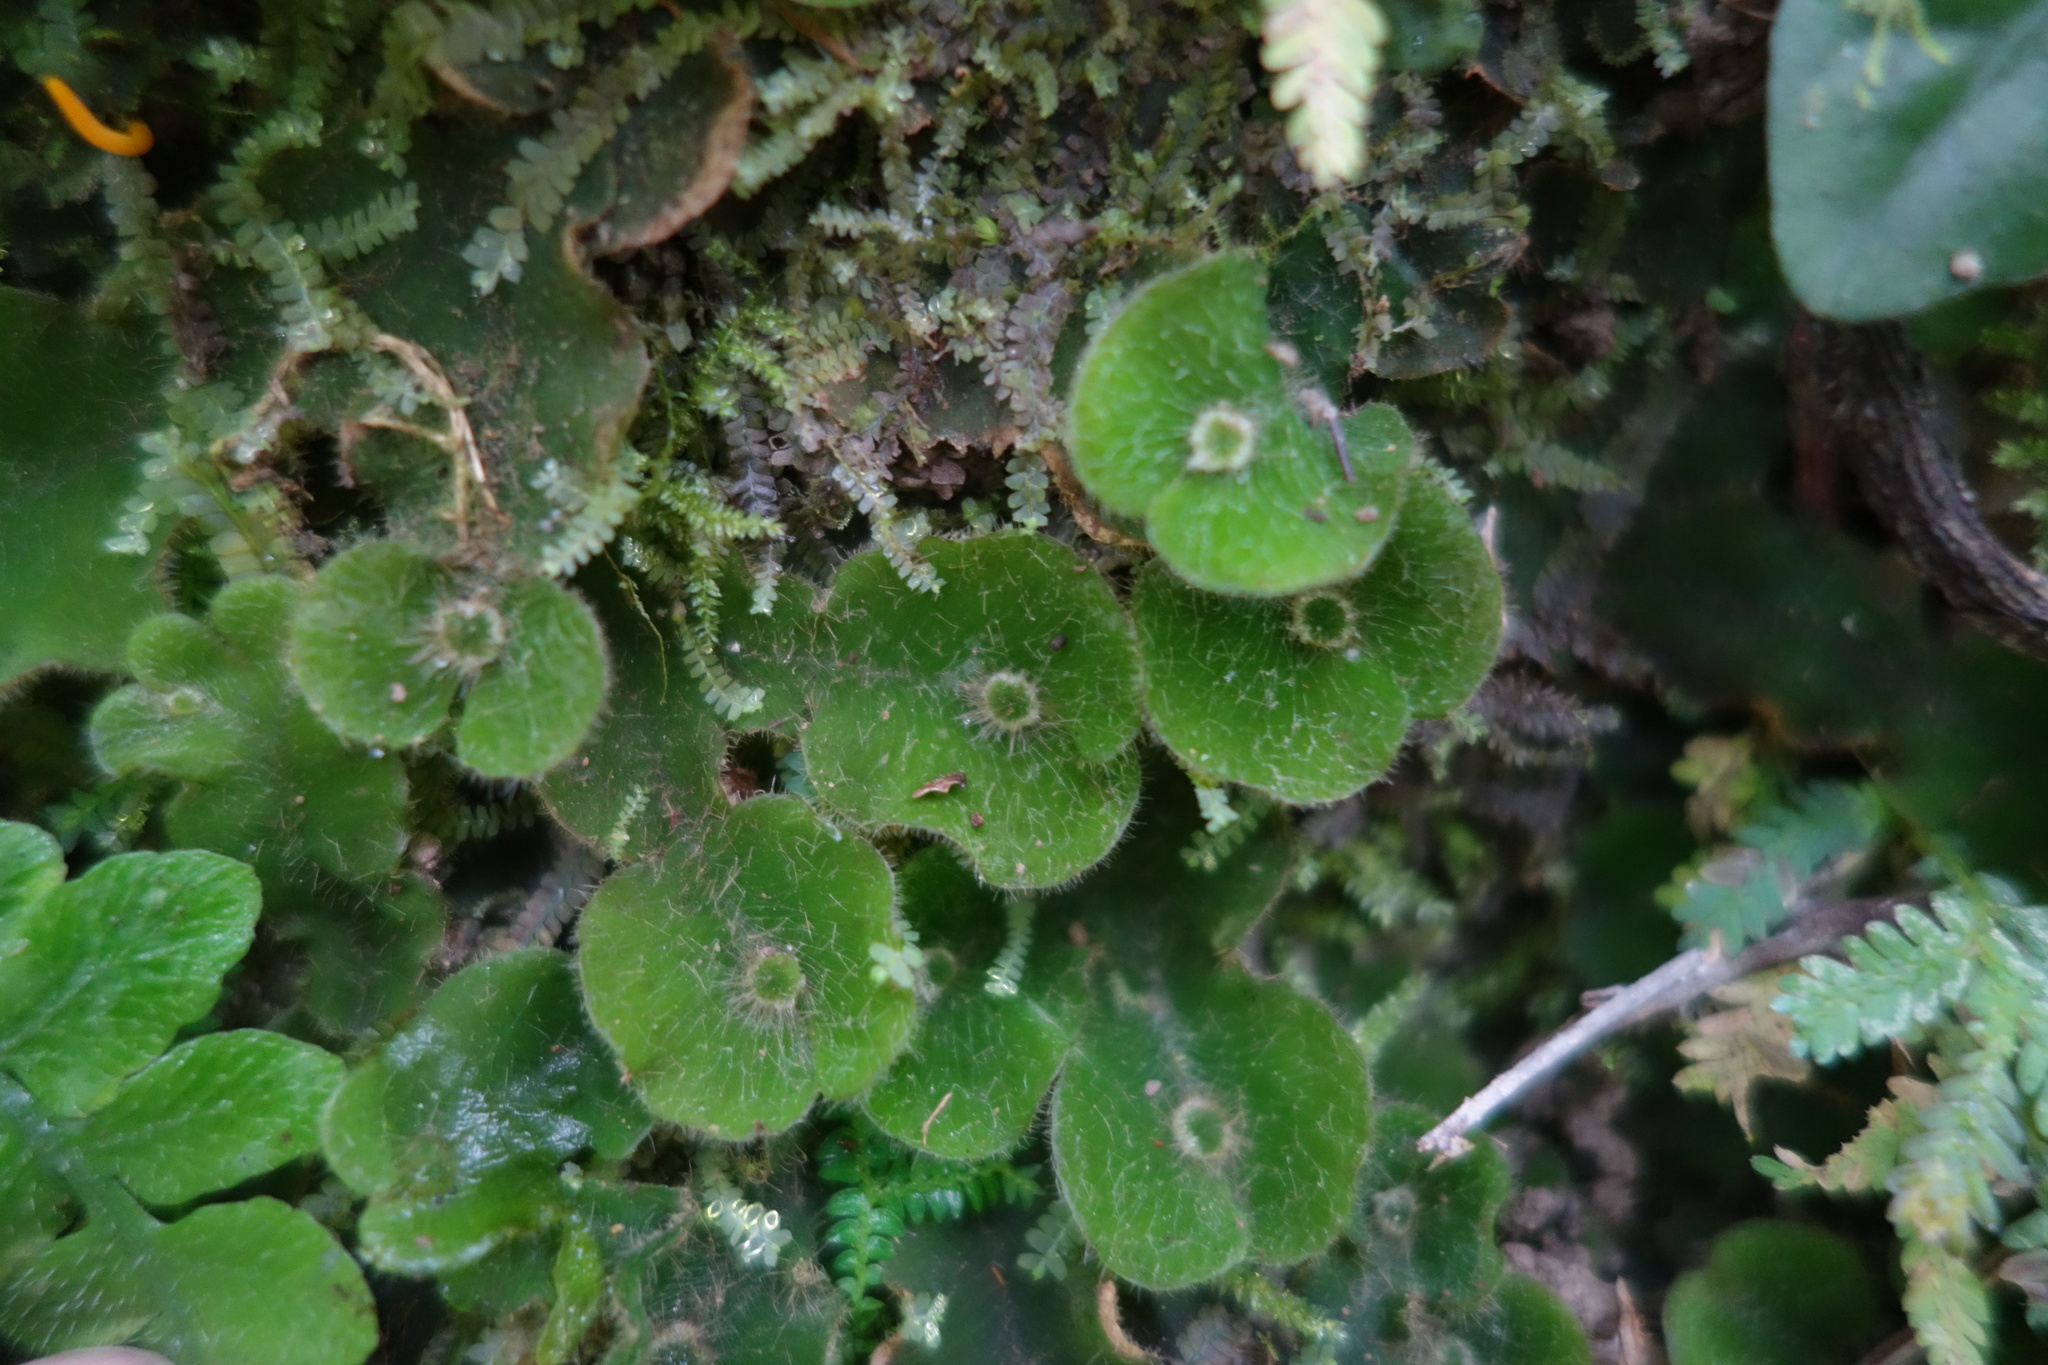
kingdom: Plantae
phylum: Marchantiophyta
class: Marchantiopsida
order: Marchantiales
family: Dumortieraceae
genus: Dumortiera
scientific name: Dumortiera hirsuta
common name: Dumortier's liverwort
